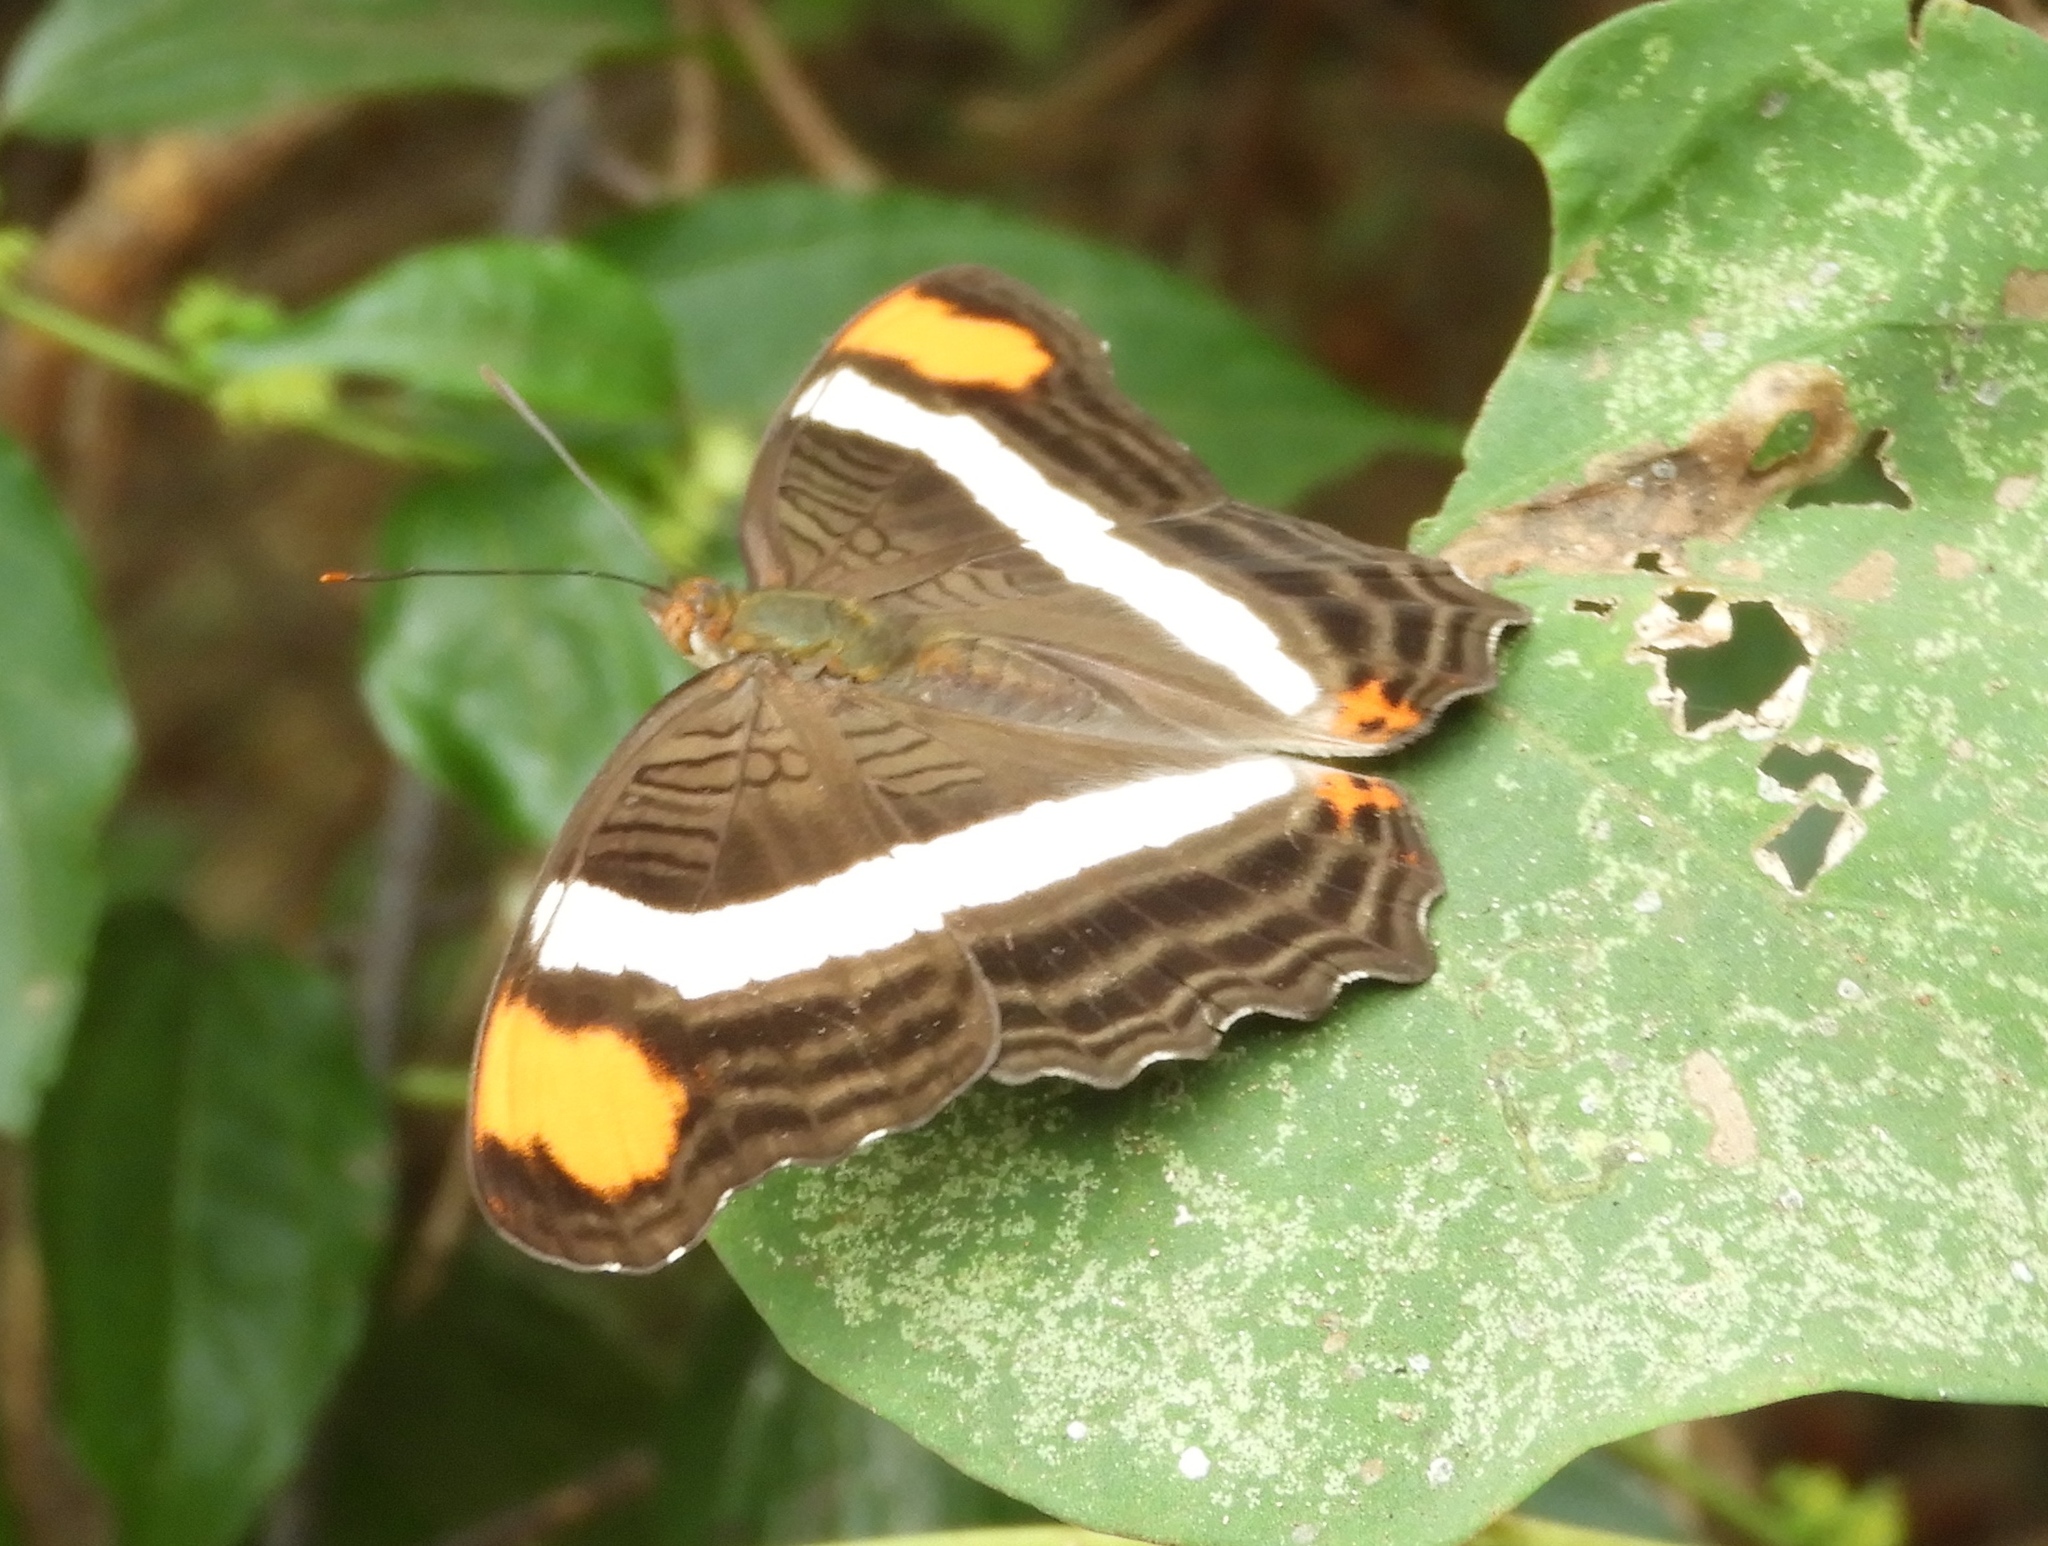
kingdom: Animalia
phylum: Arthropoda
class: Insecta
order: Lepidoptera
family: Nymphalidae
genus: Limenitis
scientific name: Limenitis fessonia
